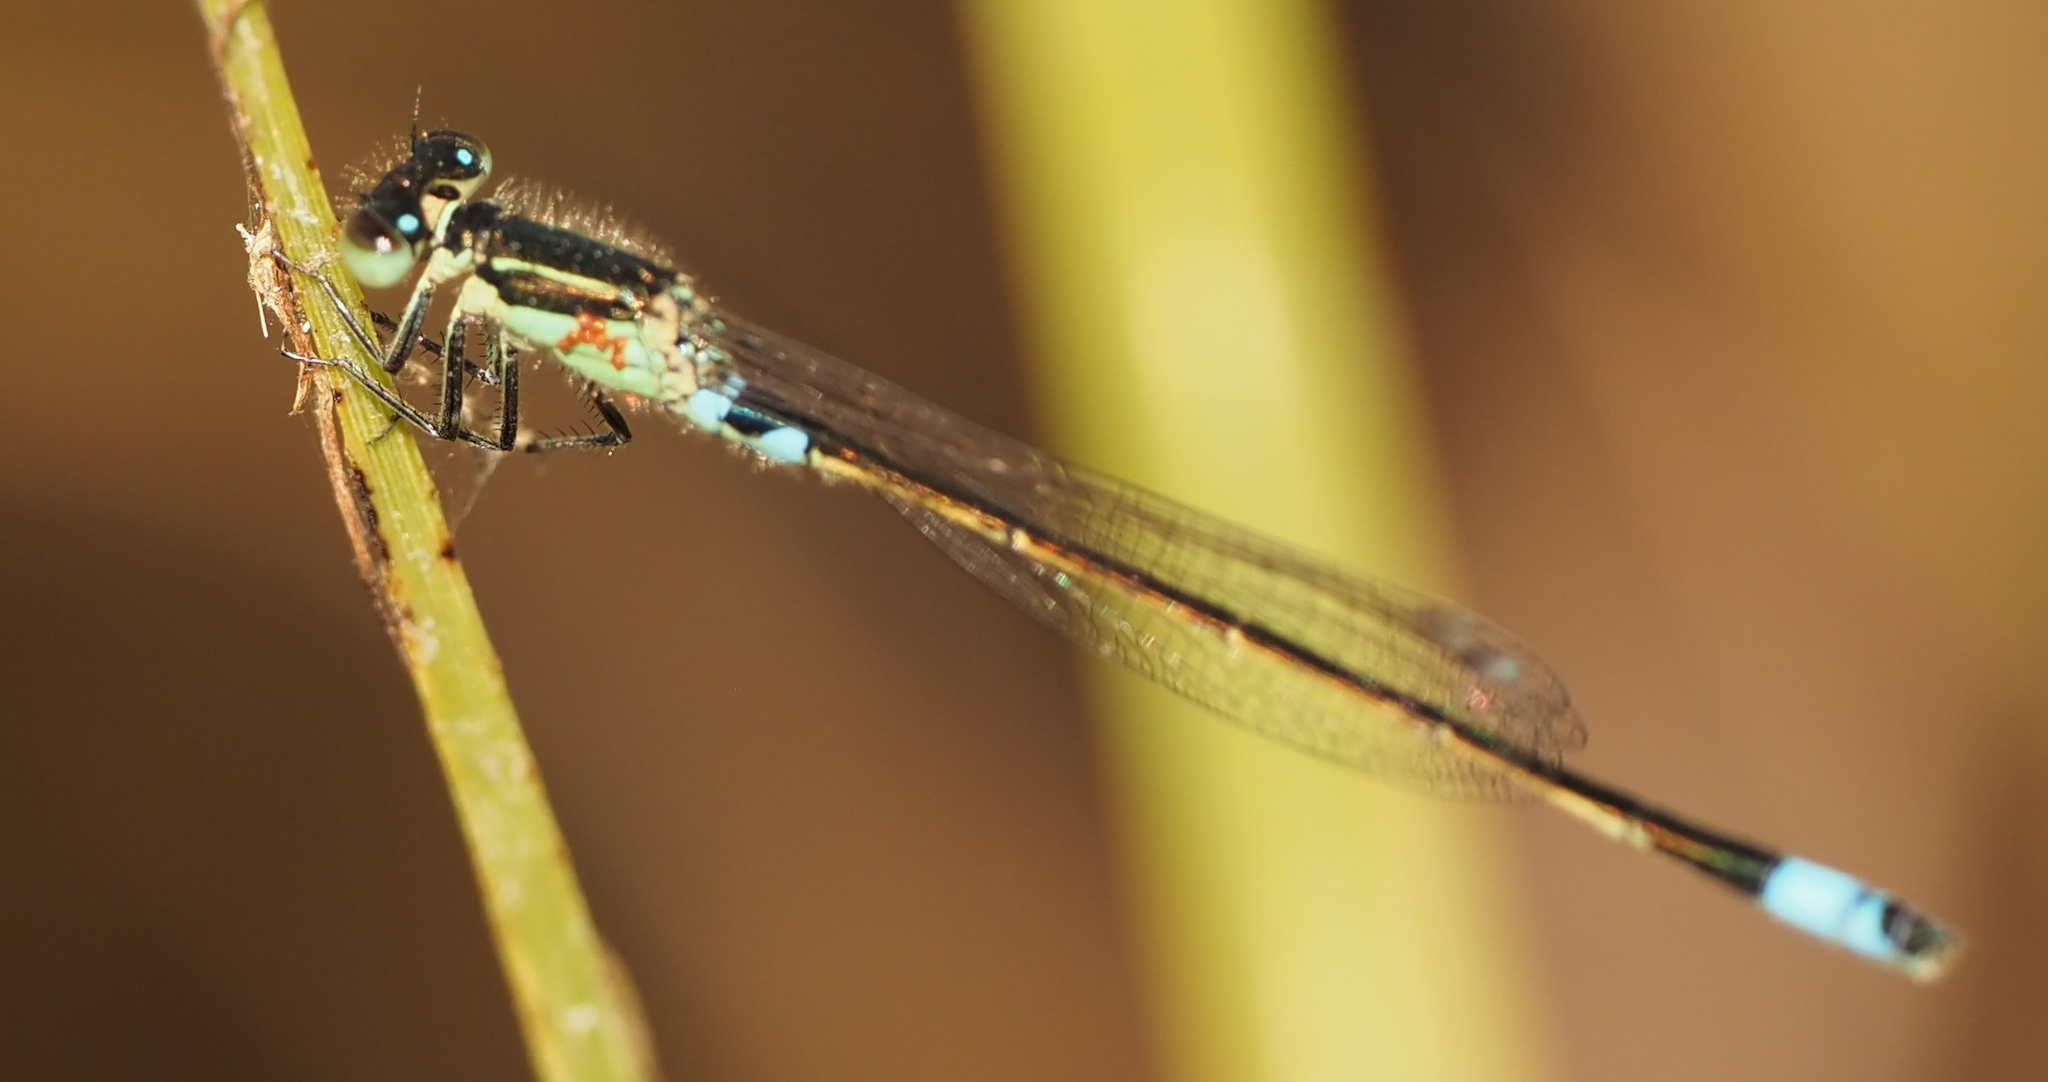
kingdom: Animalia
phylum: Arthropoda
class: Insecta
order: Odonata
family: Coenagrionidae
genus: Ischnura
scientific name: Ischnura senegalensis
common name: Tropical bluetail
